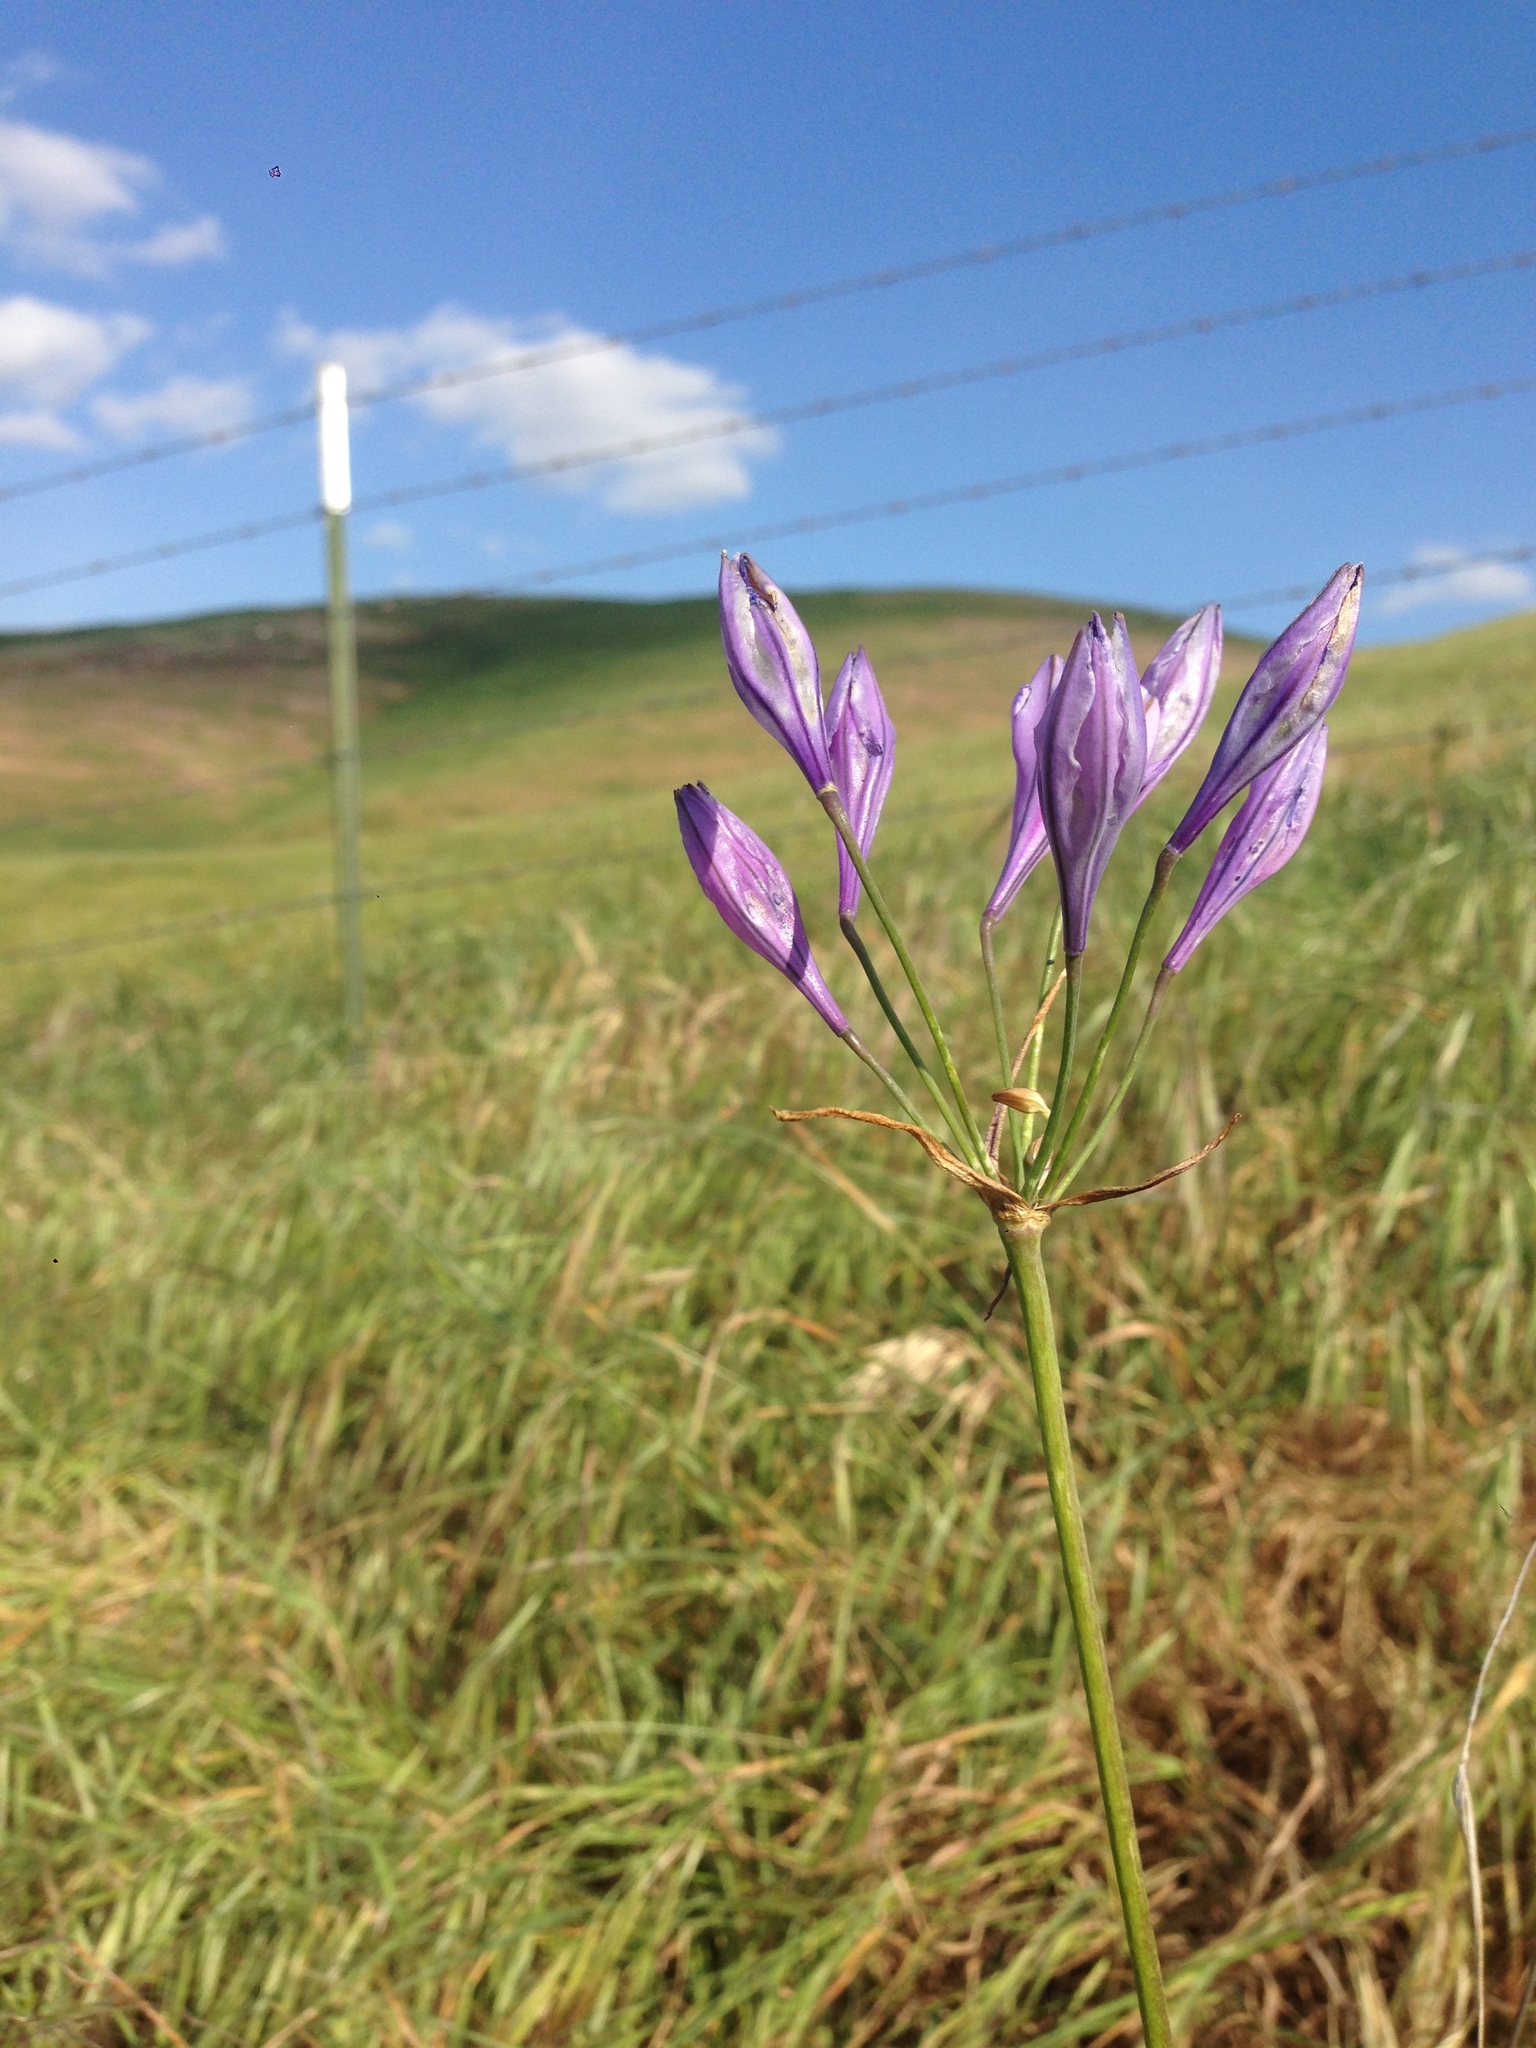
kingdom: Plantae
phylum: Tracheophyta
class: Liliopsida
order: Asparagales
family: Asparagaceae
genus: Triteleia
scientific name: Triteleia laxa
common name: Triplet-lily
